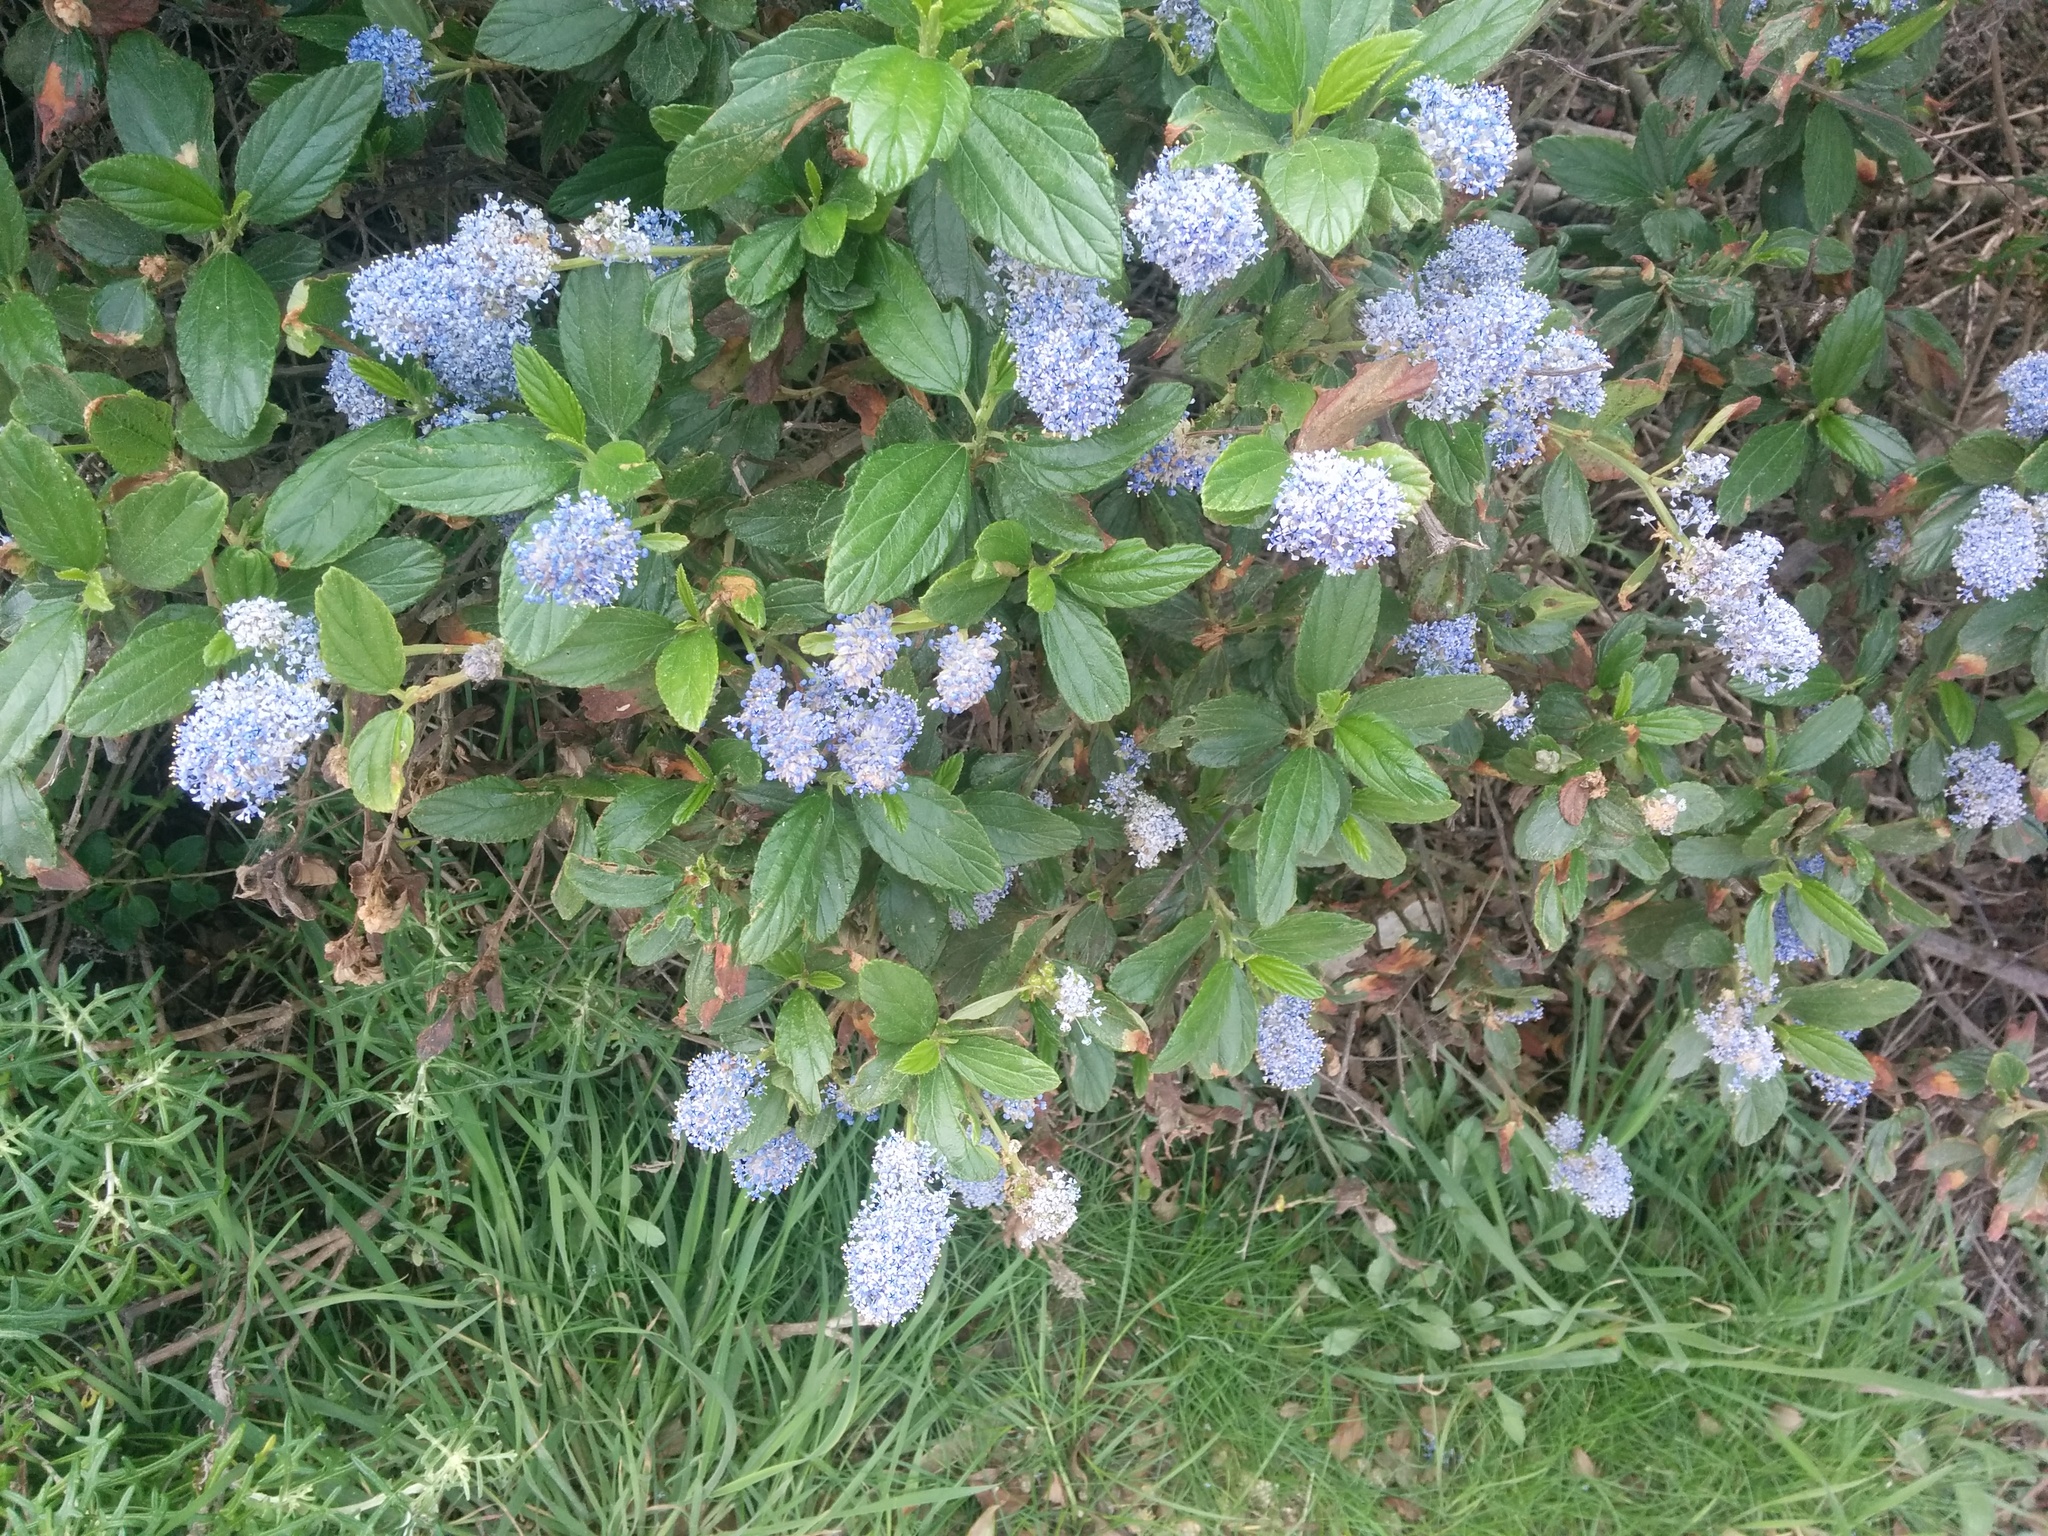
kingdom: Plantae
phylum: Tracheophyta
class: Magnoliopsida
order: Rosales
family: Rhamnaceae
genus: Ceanothus
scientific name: Ceanothus thyrsiflorus
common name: California-lilac
